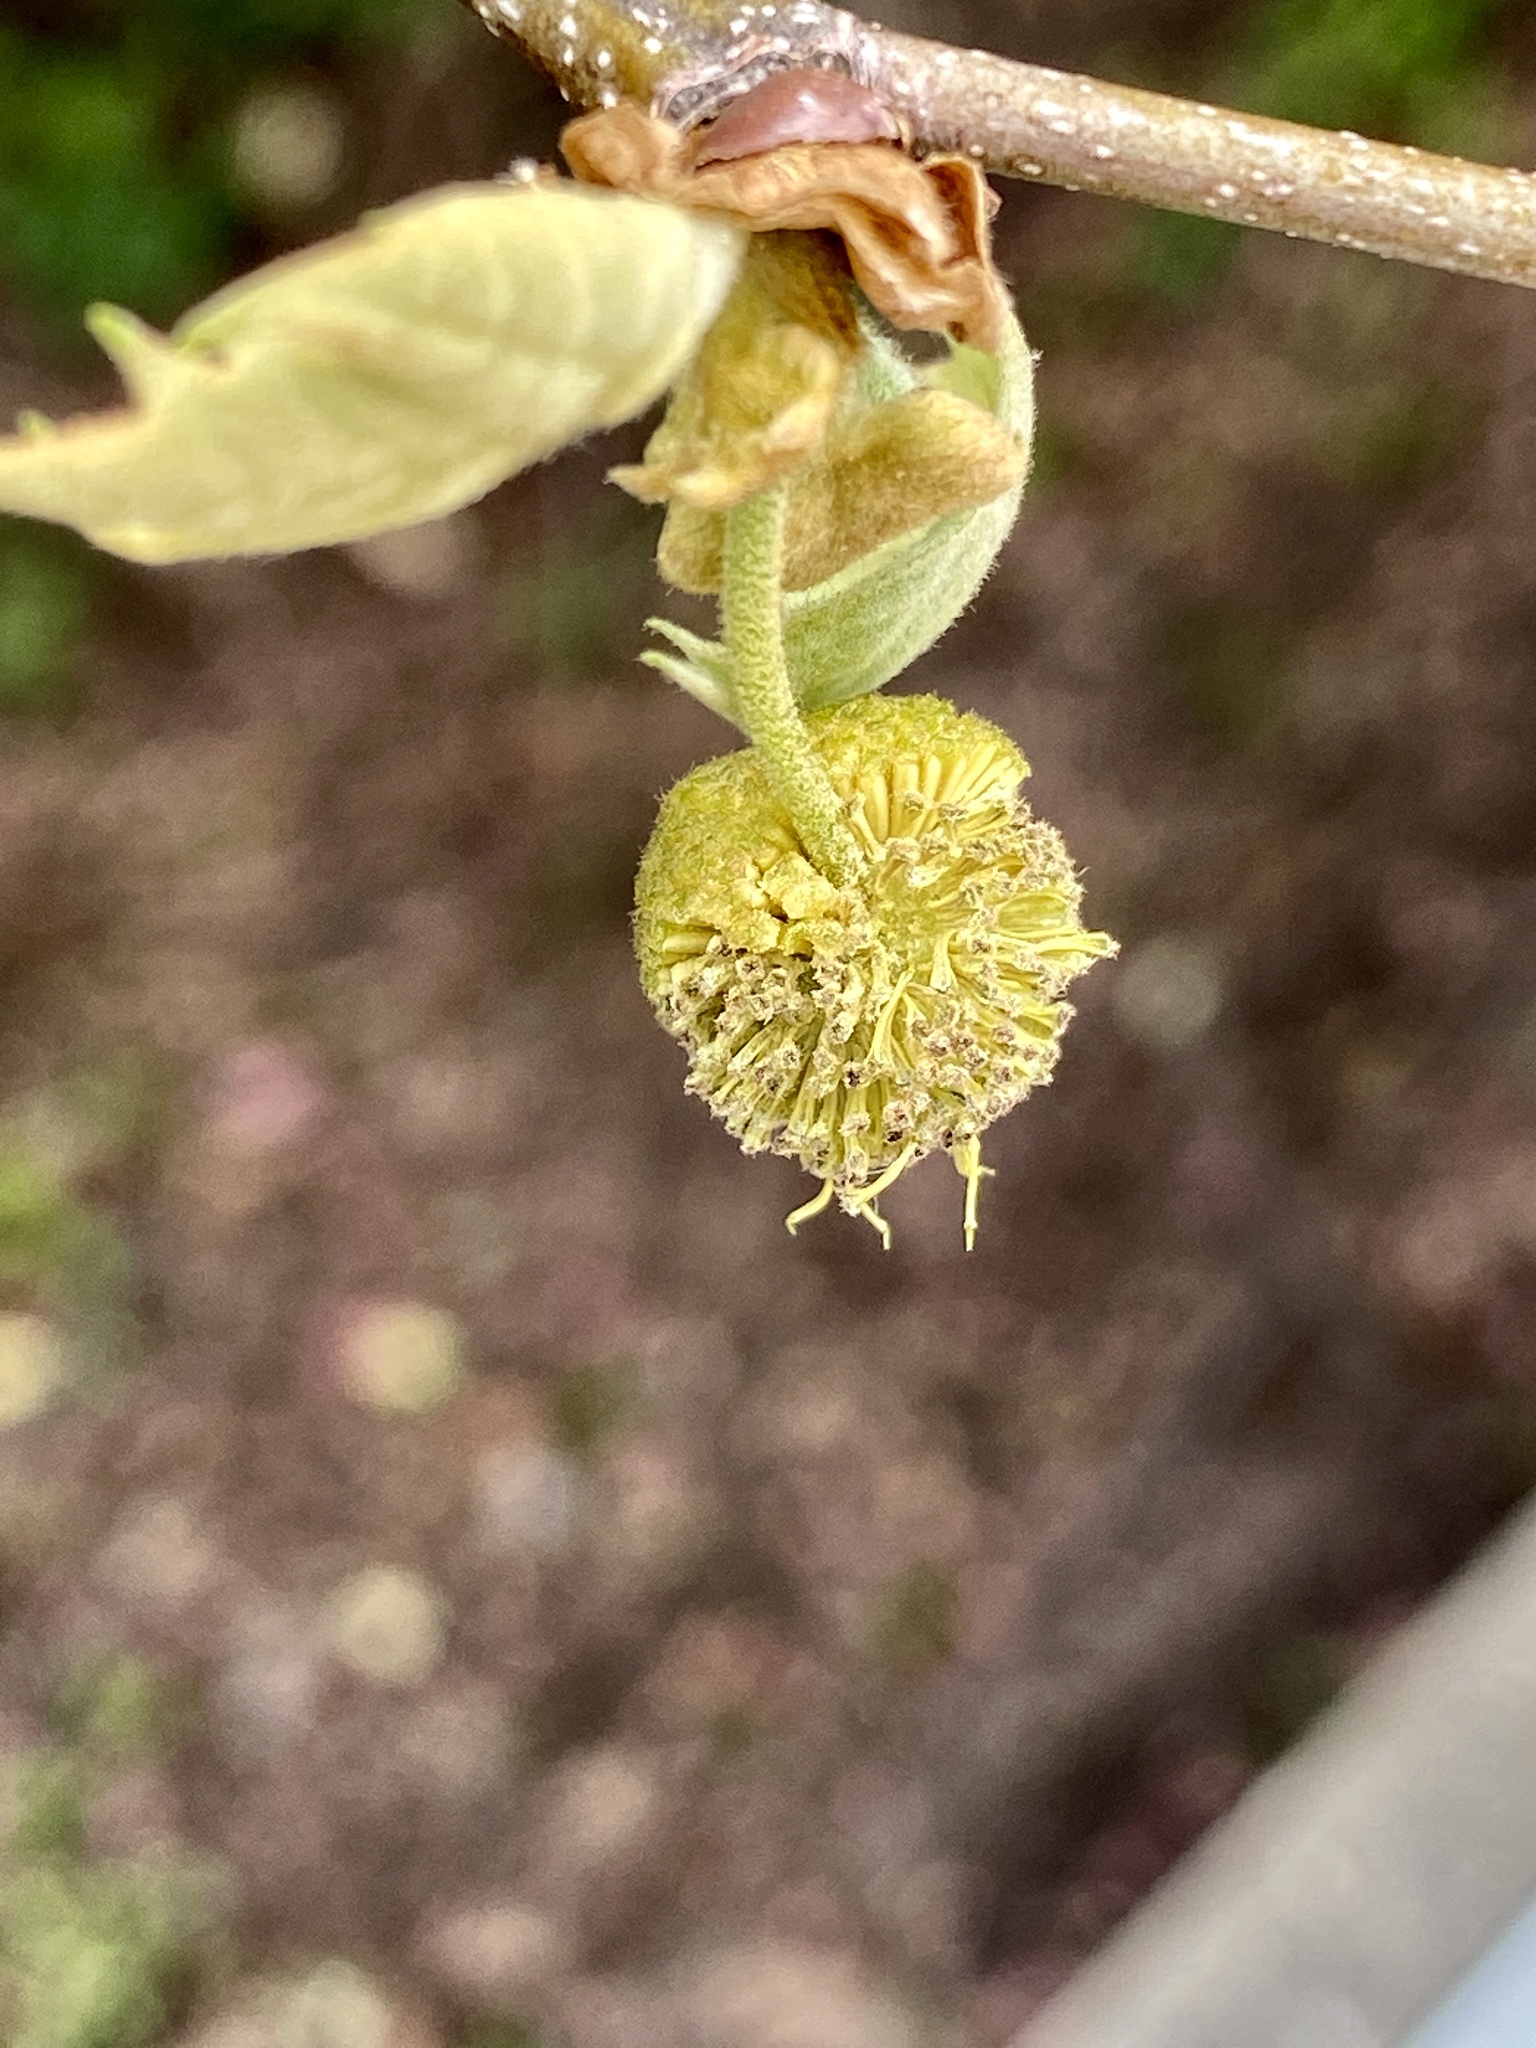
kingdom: Plantae
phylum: Tracheophyta
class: Magnoliopsida
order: Proteales
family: Platanaceae
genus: Platanus
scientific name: Platanus occidentalis
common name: American sycamore
